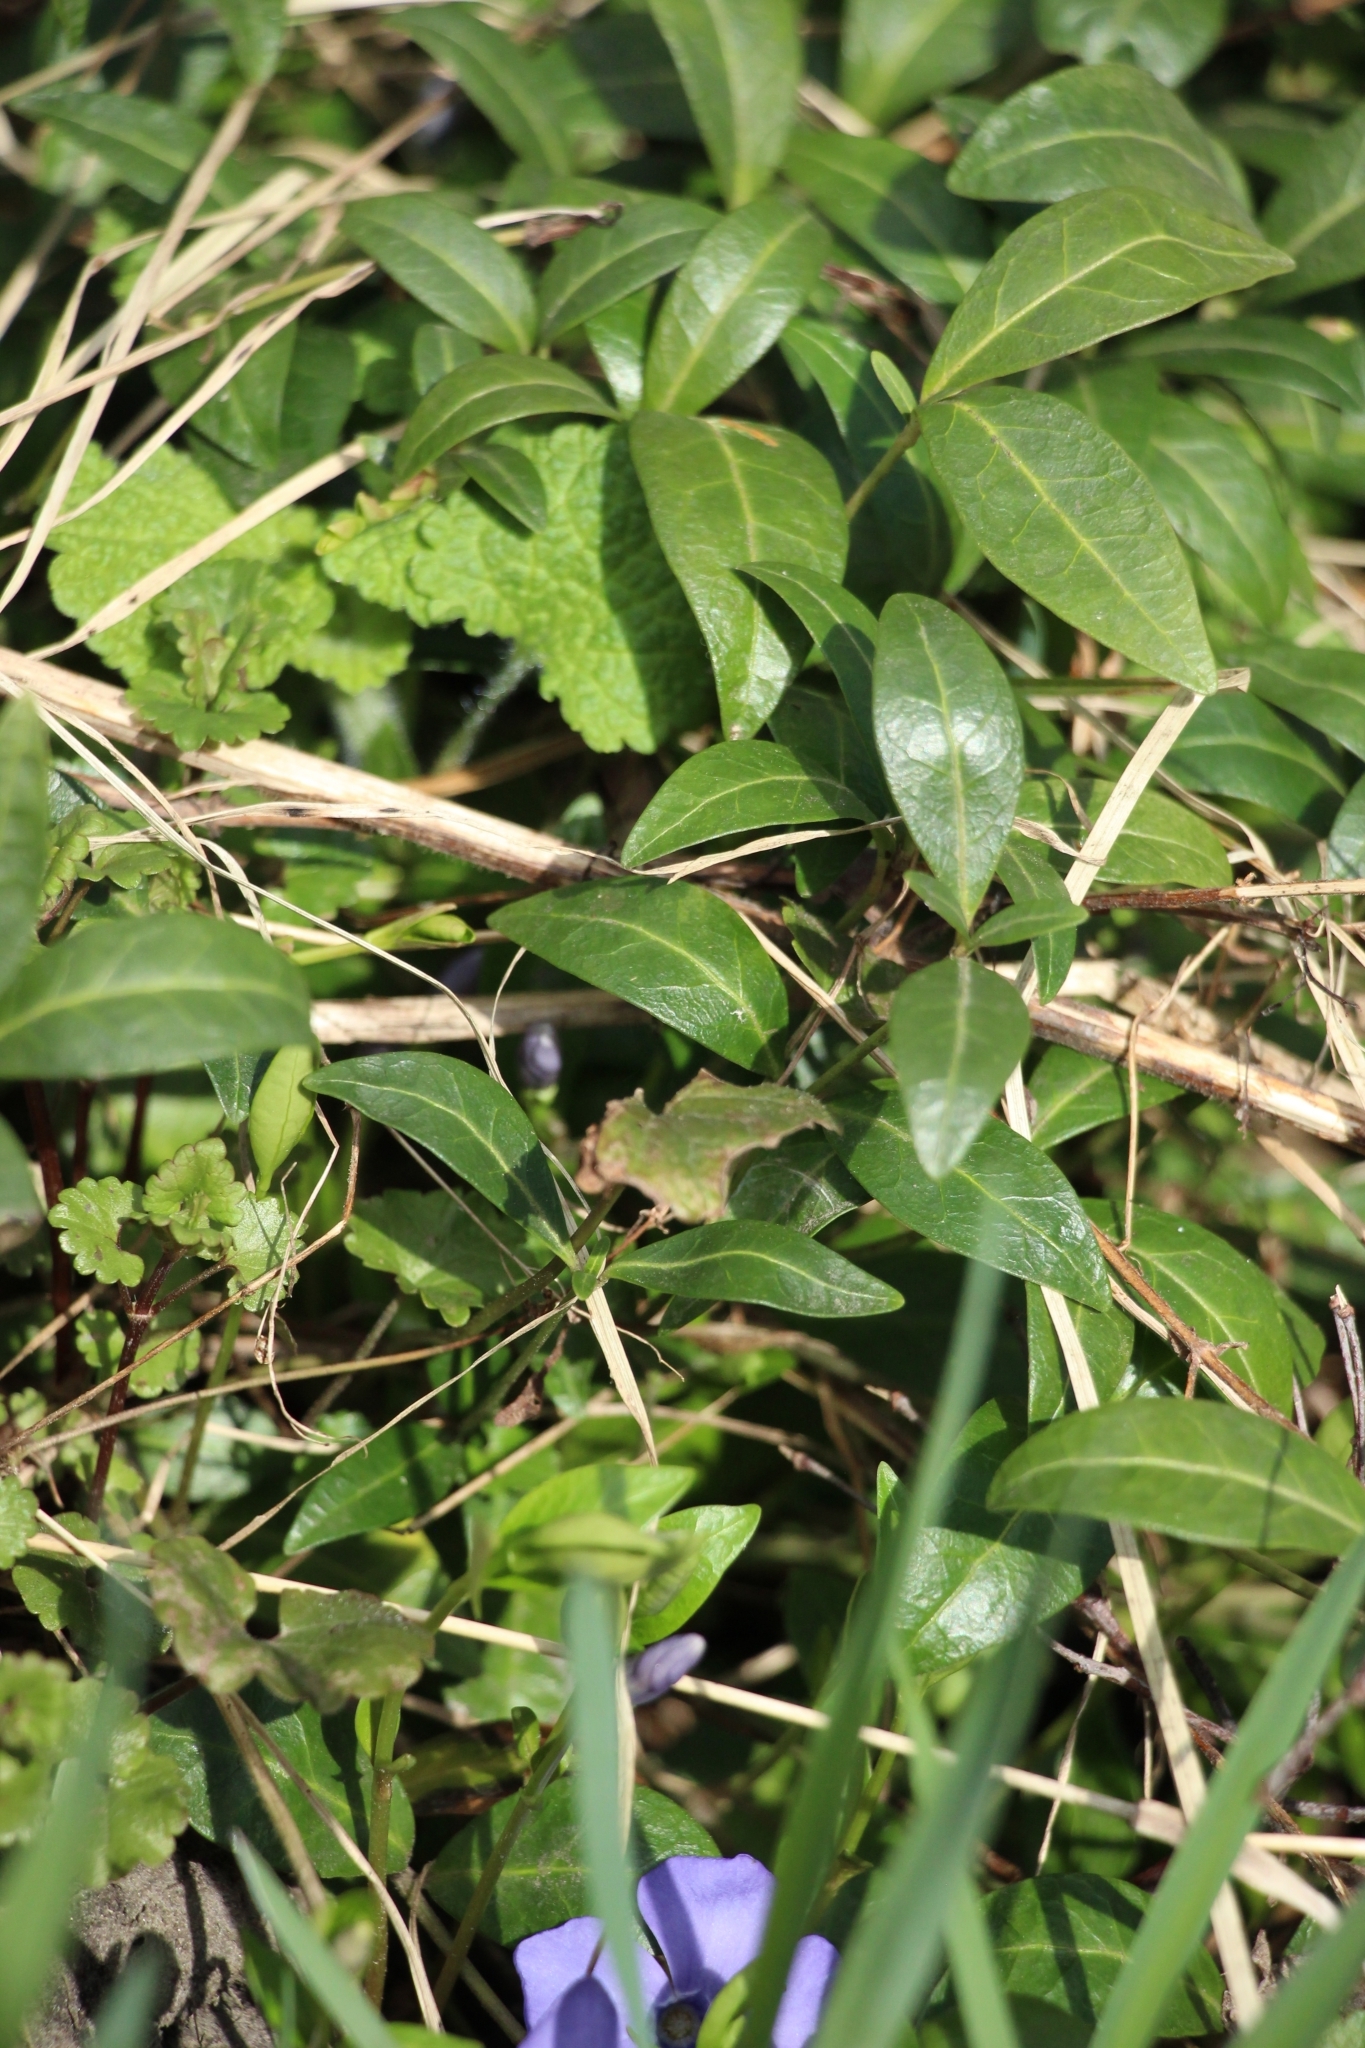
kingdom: Plantae
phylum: Tracheophyta
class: Magnoliopsida
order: Gentianales
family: Apocynaceae
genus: Vinca
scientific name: Vinca minor
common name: Lesser periwinkle
